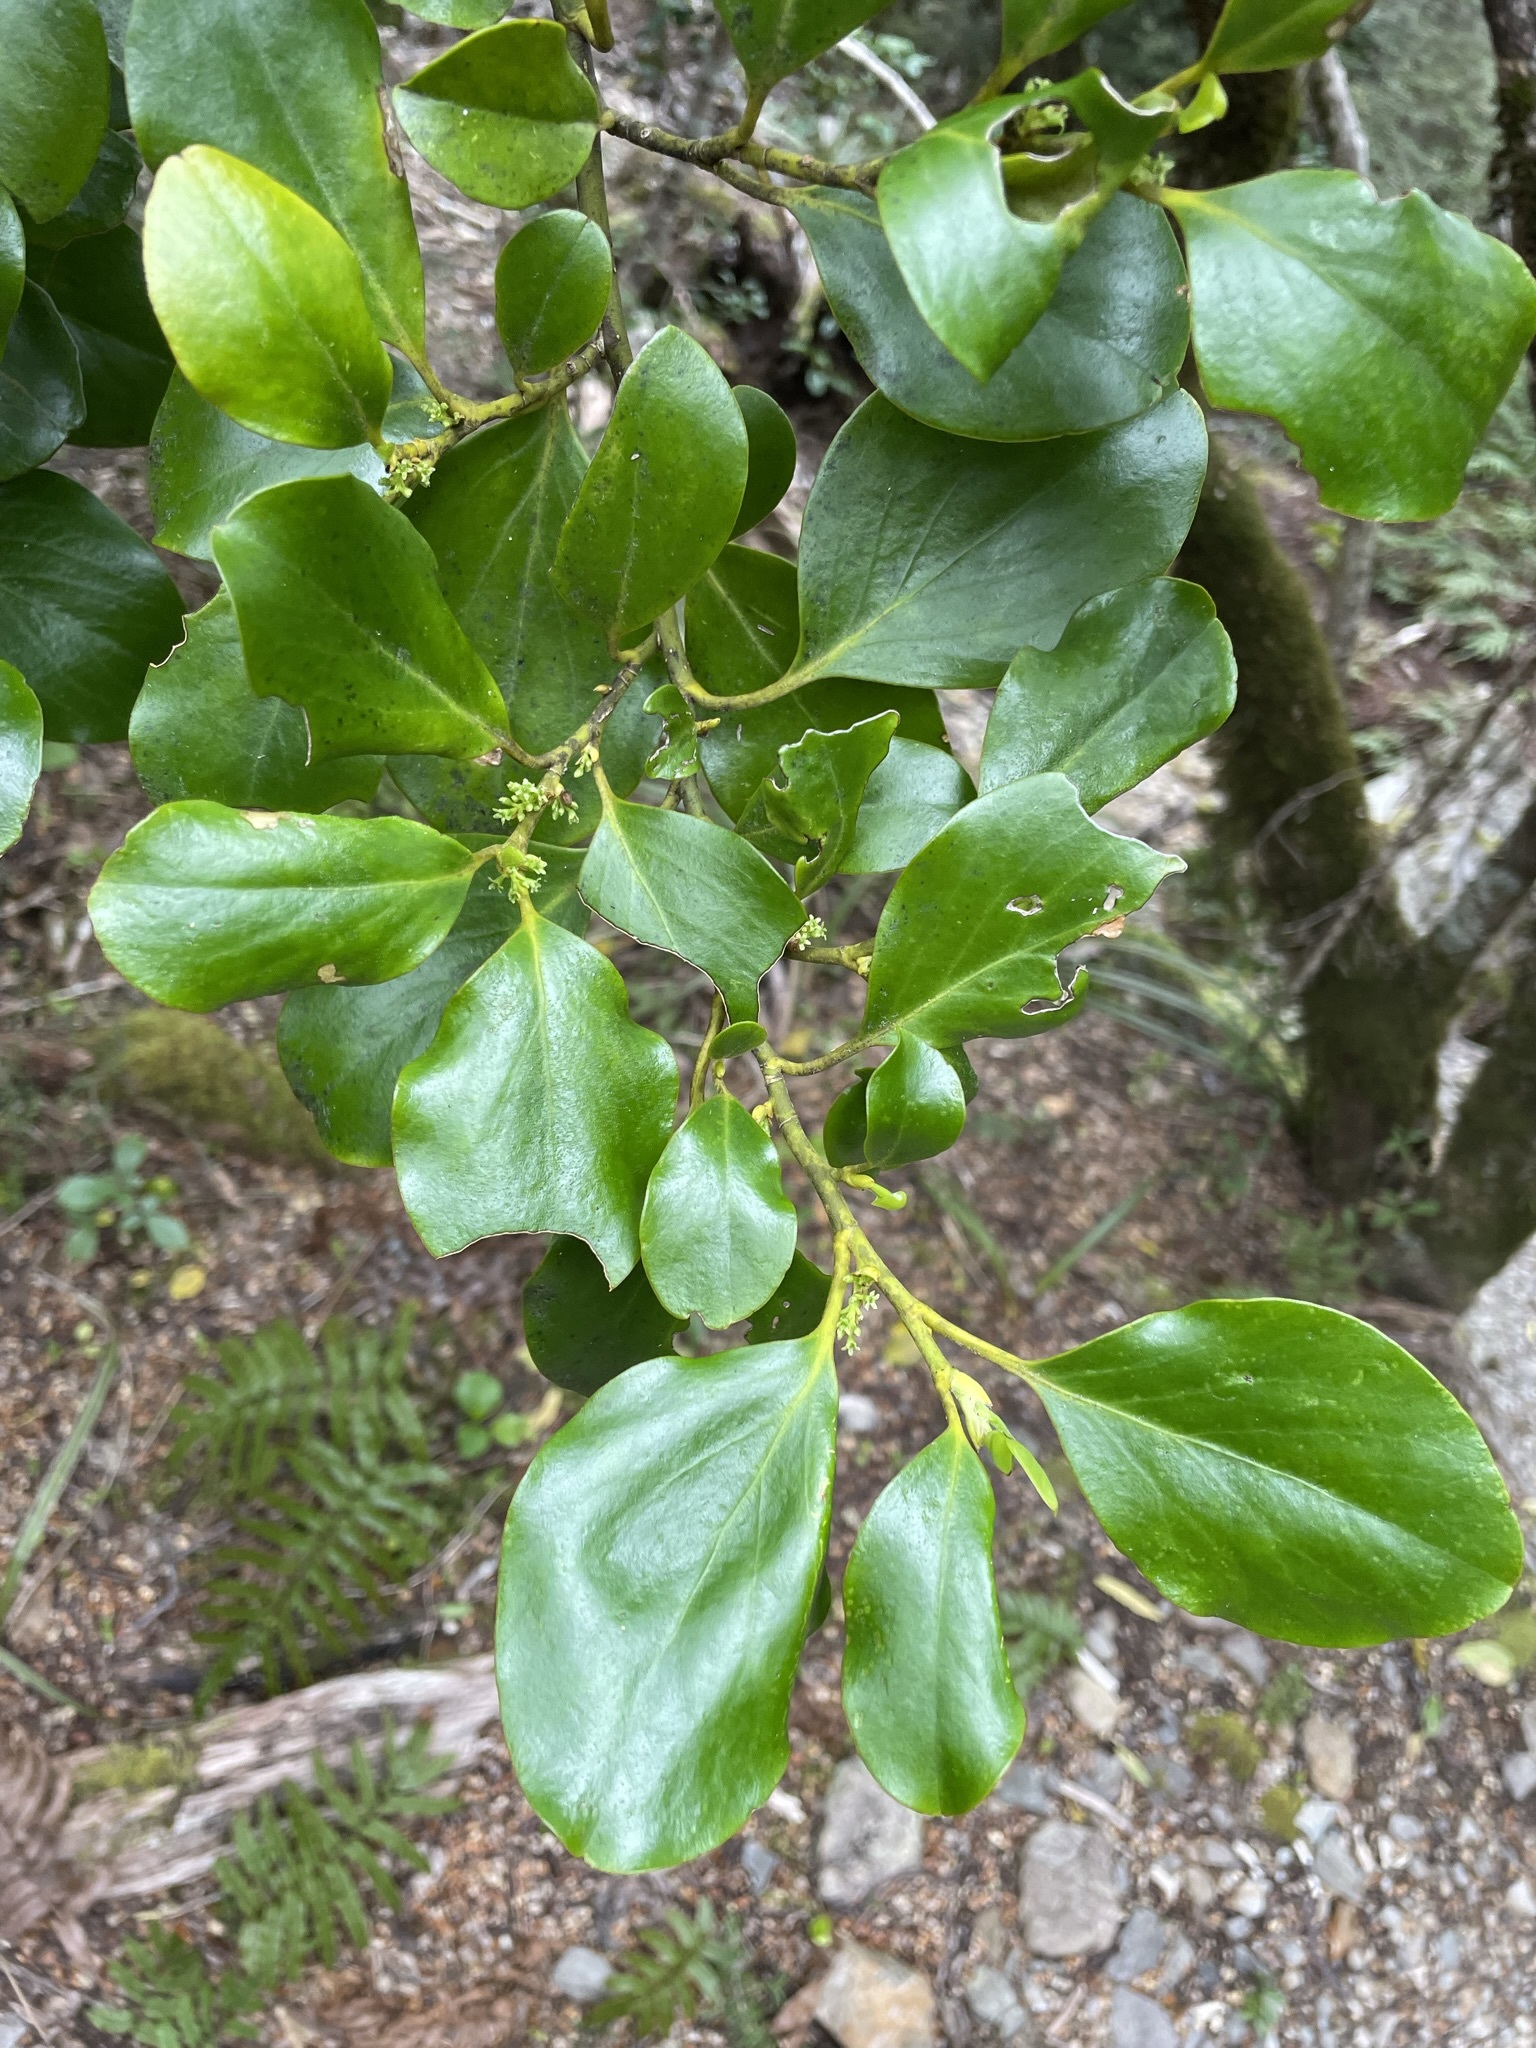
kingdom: Plantae
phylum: Tracheophyta
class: Magnoliopsida
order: Apiales
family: Griseliniaceae
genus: Griselinia
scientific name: Griselinia littoralis
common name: New zealand broadleaf
